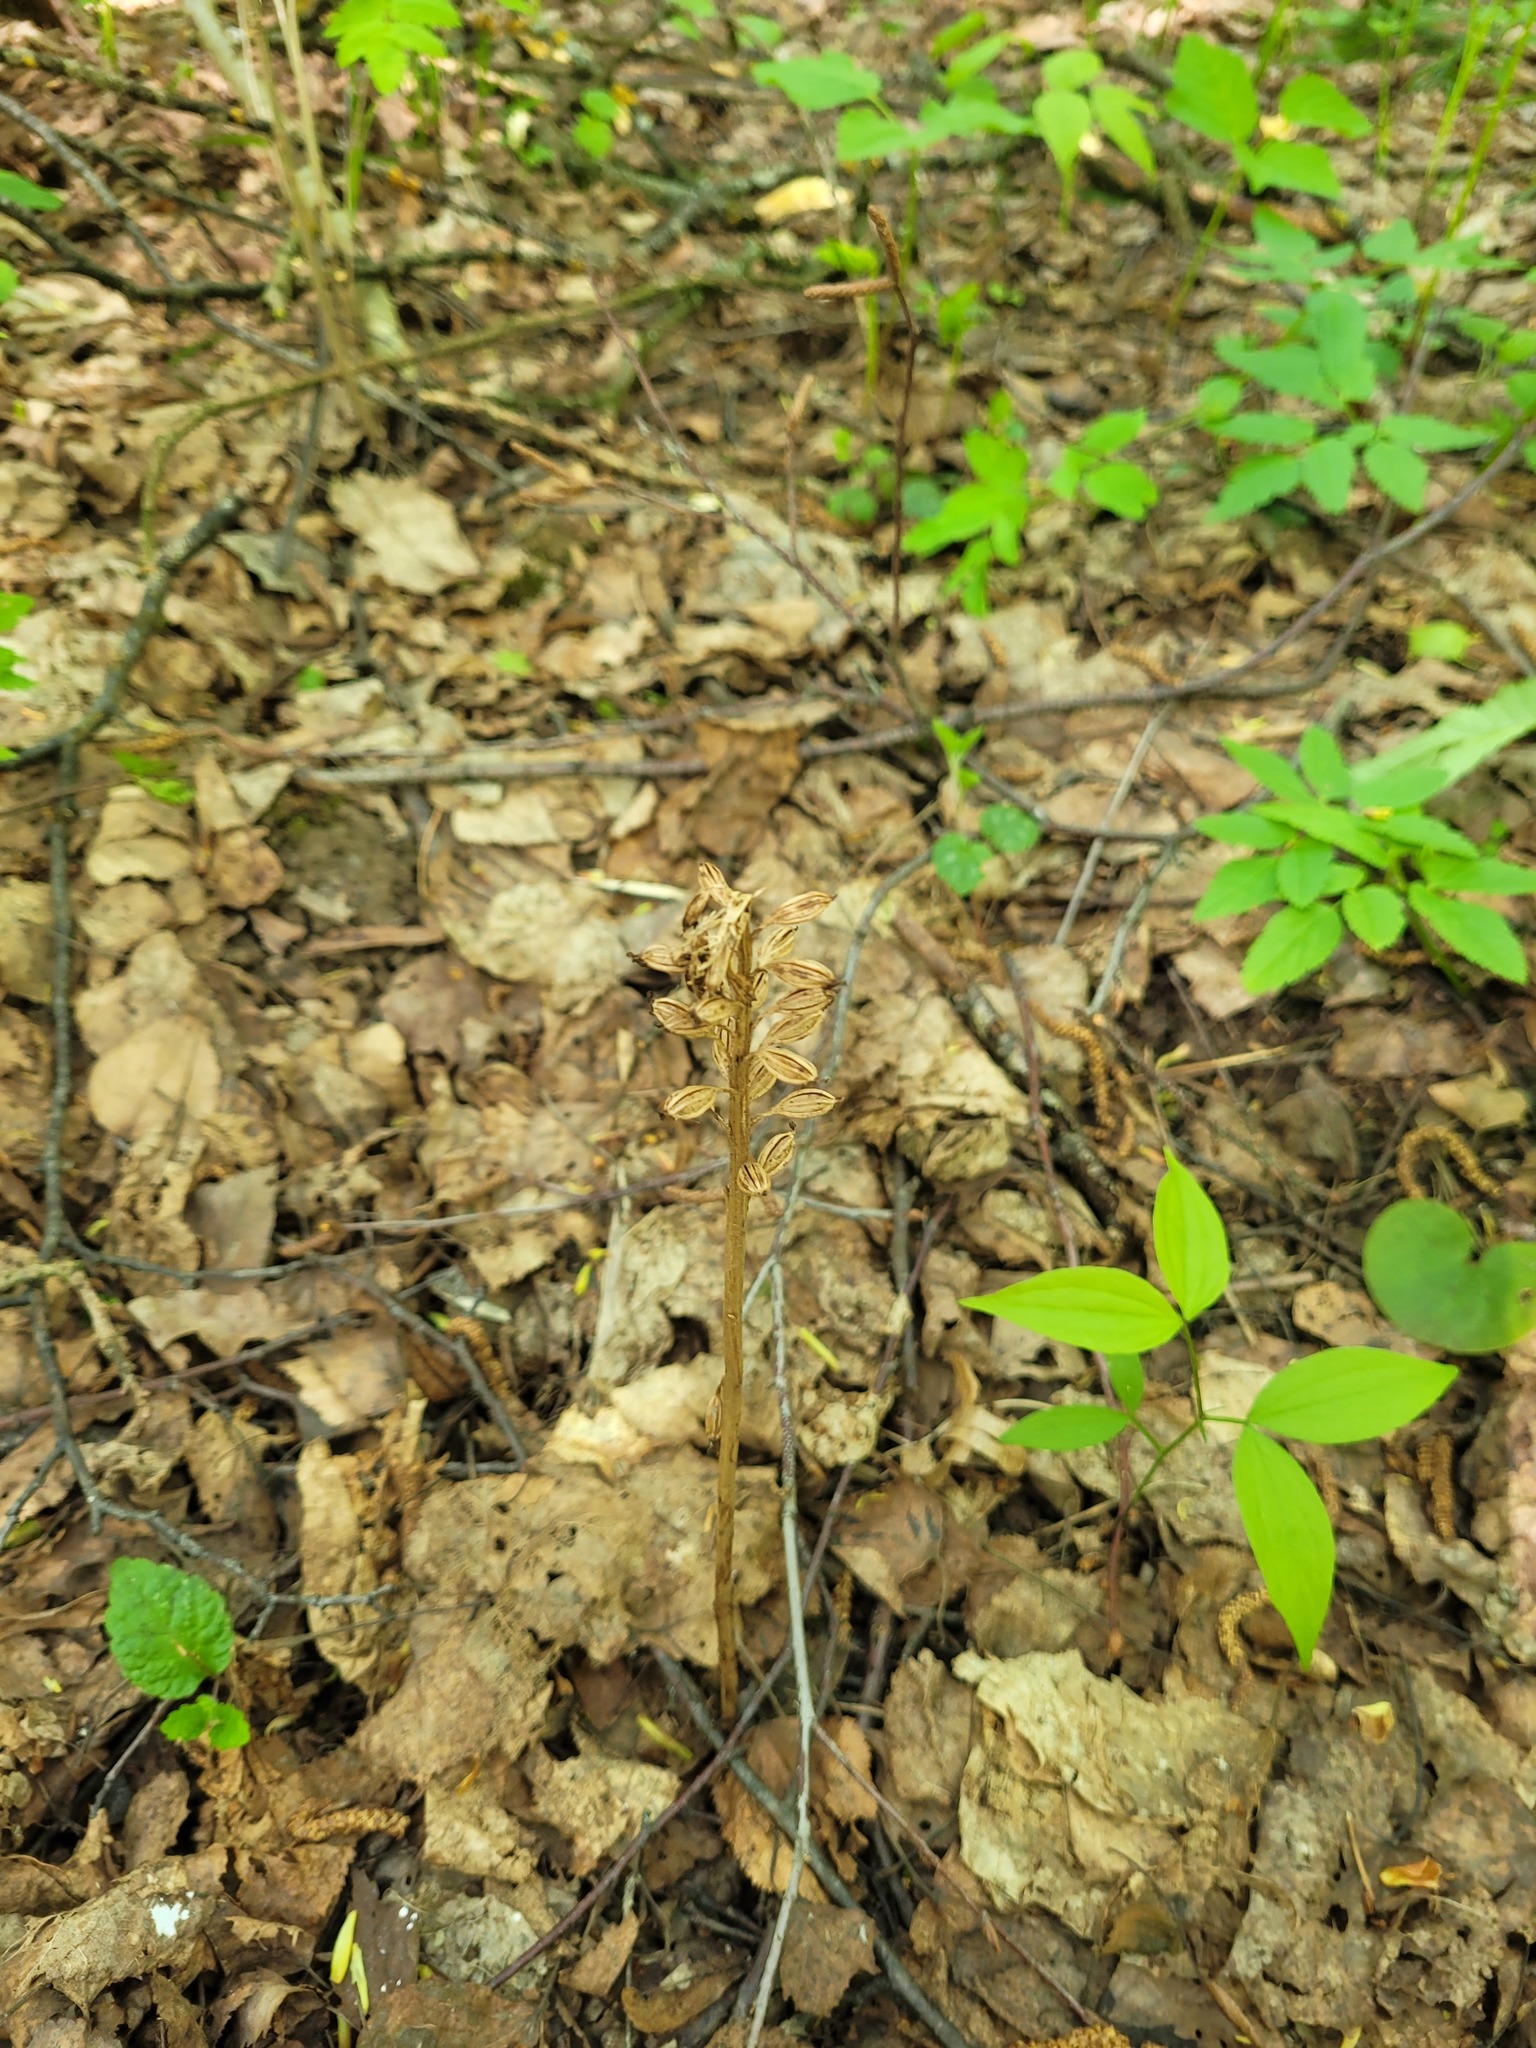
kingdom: Plantae
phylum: Tracheophyta
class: Liliopsida
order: Asparagales
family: Orchidaceae
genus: Neottia
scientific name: Neottia nidus-avis
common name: Bird's-nest orchid
